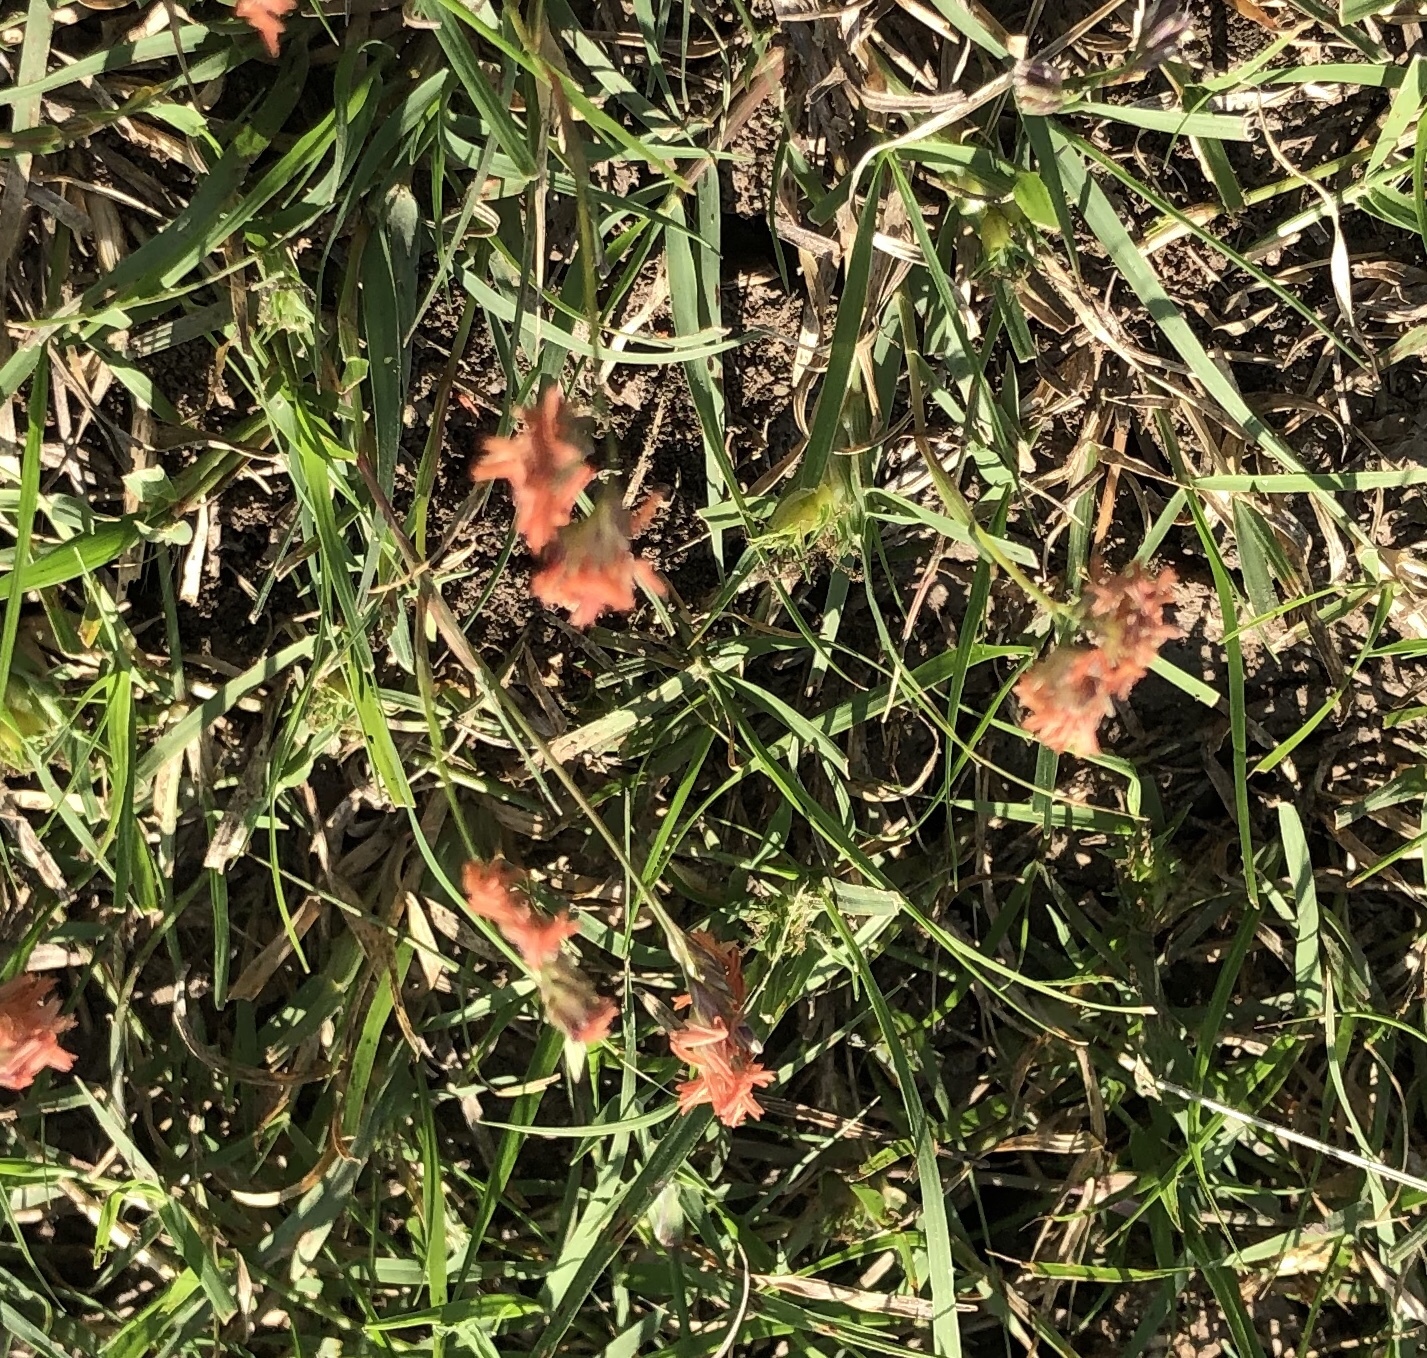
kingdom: Plantae
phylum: Tracheophyta
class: Liliopsida
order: Poales
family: Poaceae
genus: Bouteloua
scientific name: Bouteloua dactyloides
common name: Buffalo grass
